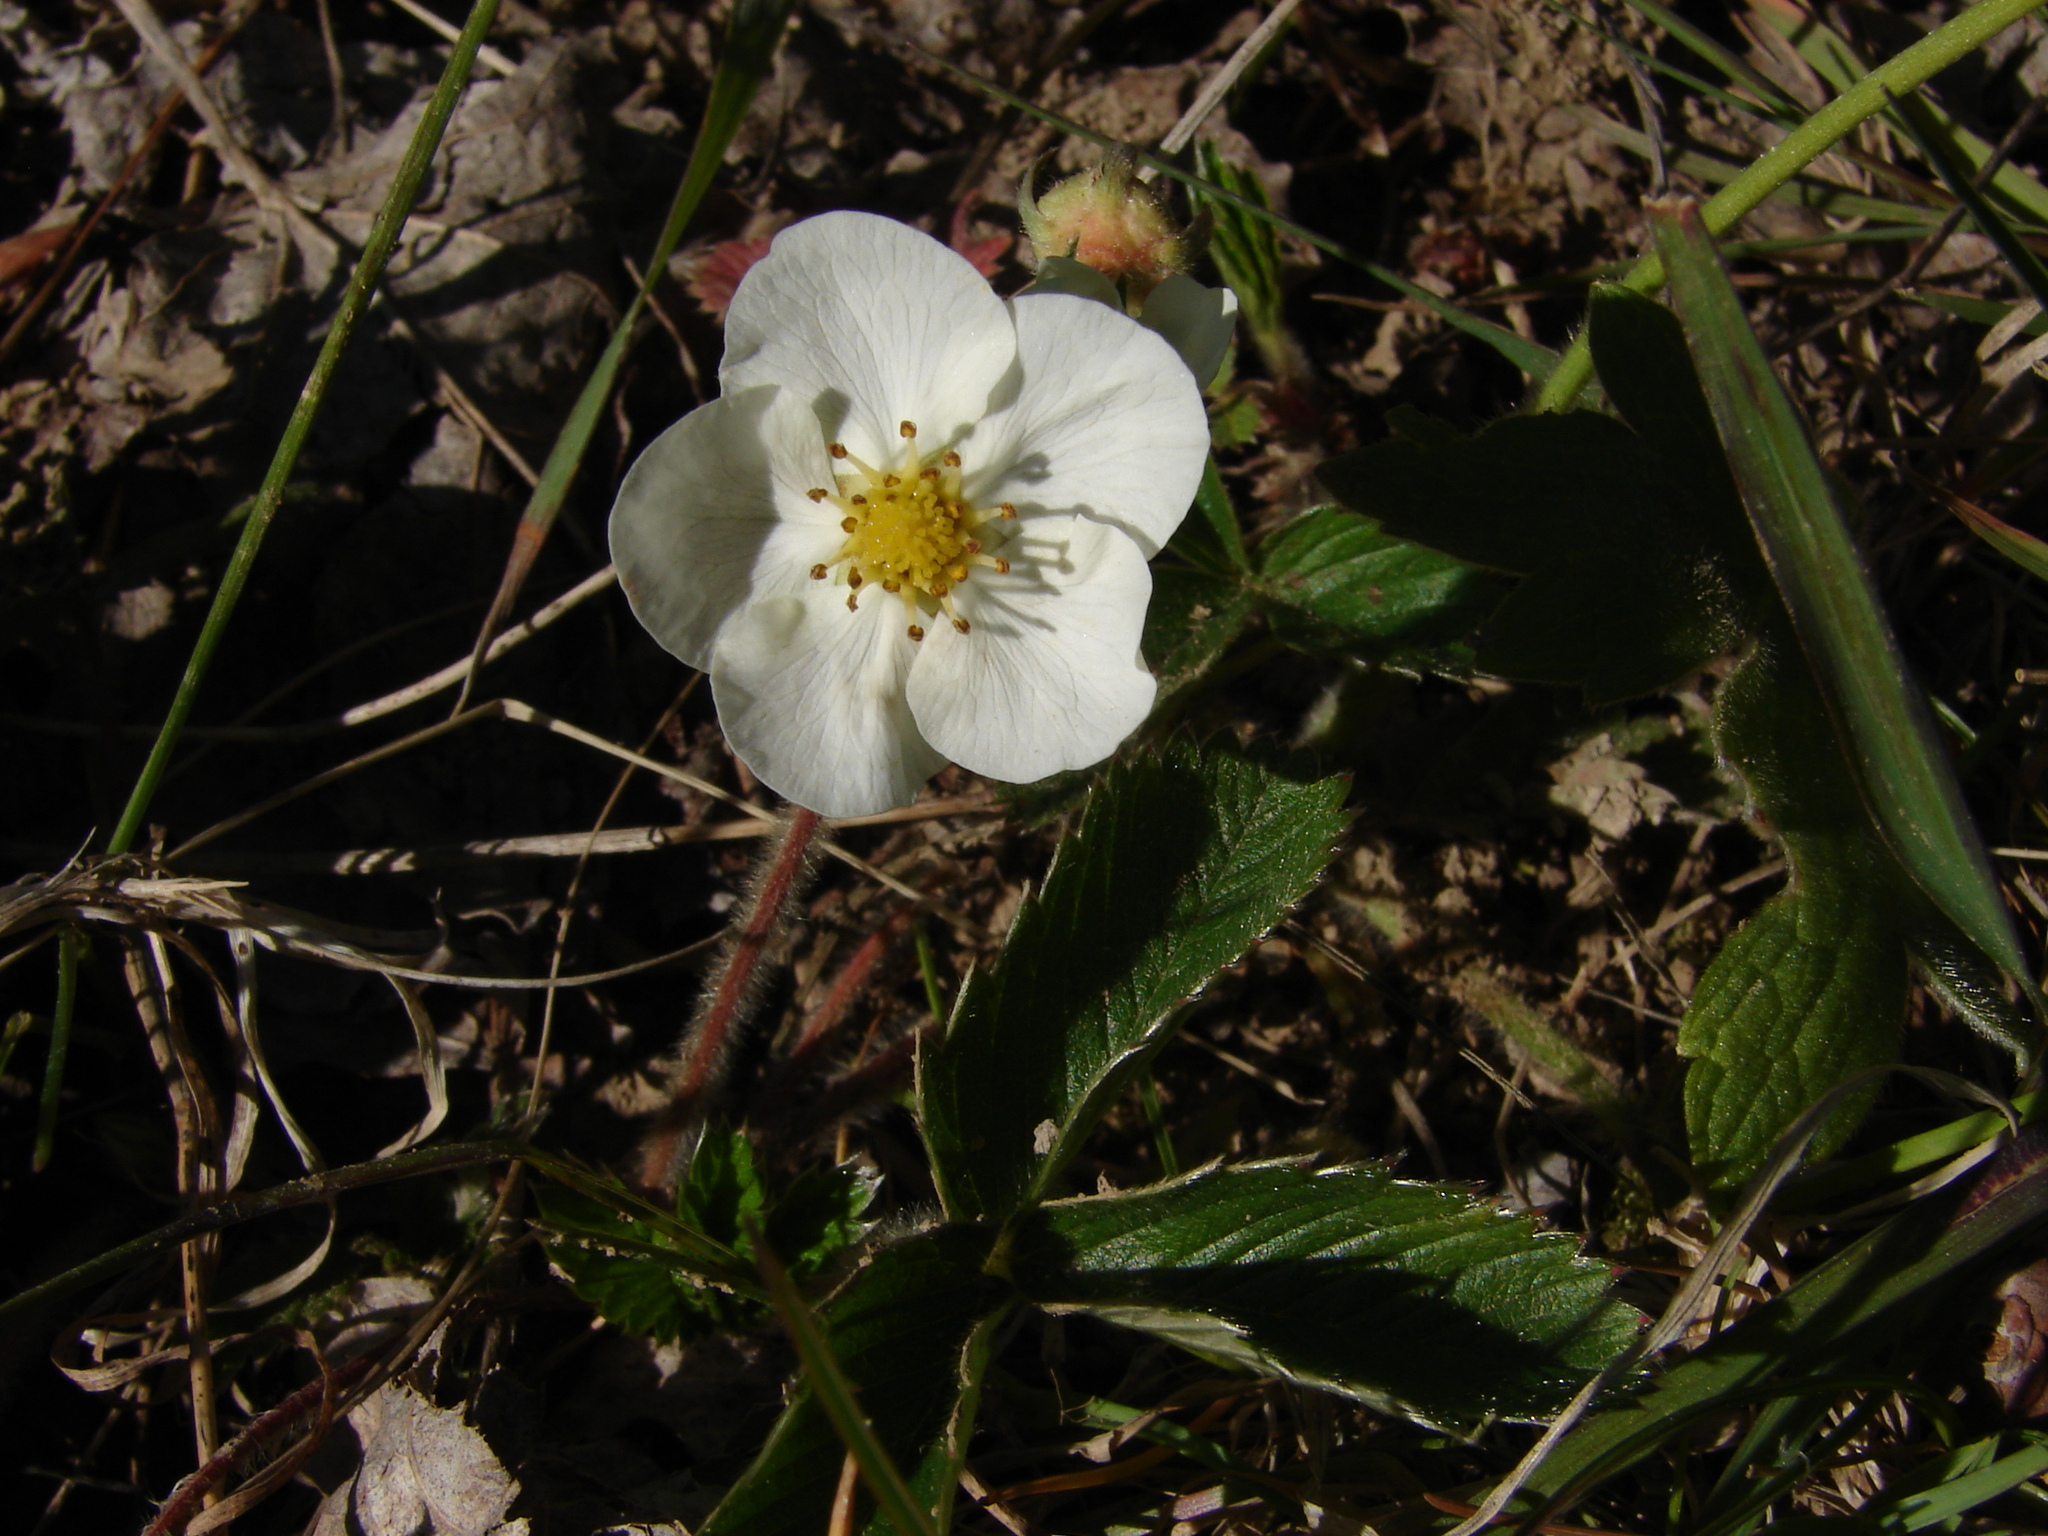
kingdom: Plantae
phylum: Tracheophyta
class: Magnoliopsida
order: Rosales
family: Rosaceae
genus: Fragaria
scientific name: Fragaria viridis
